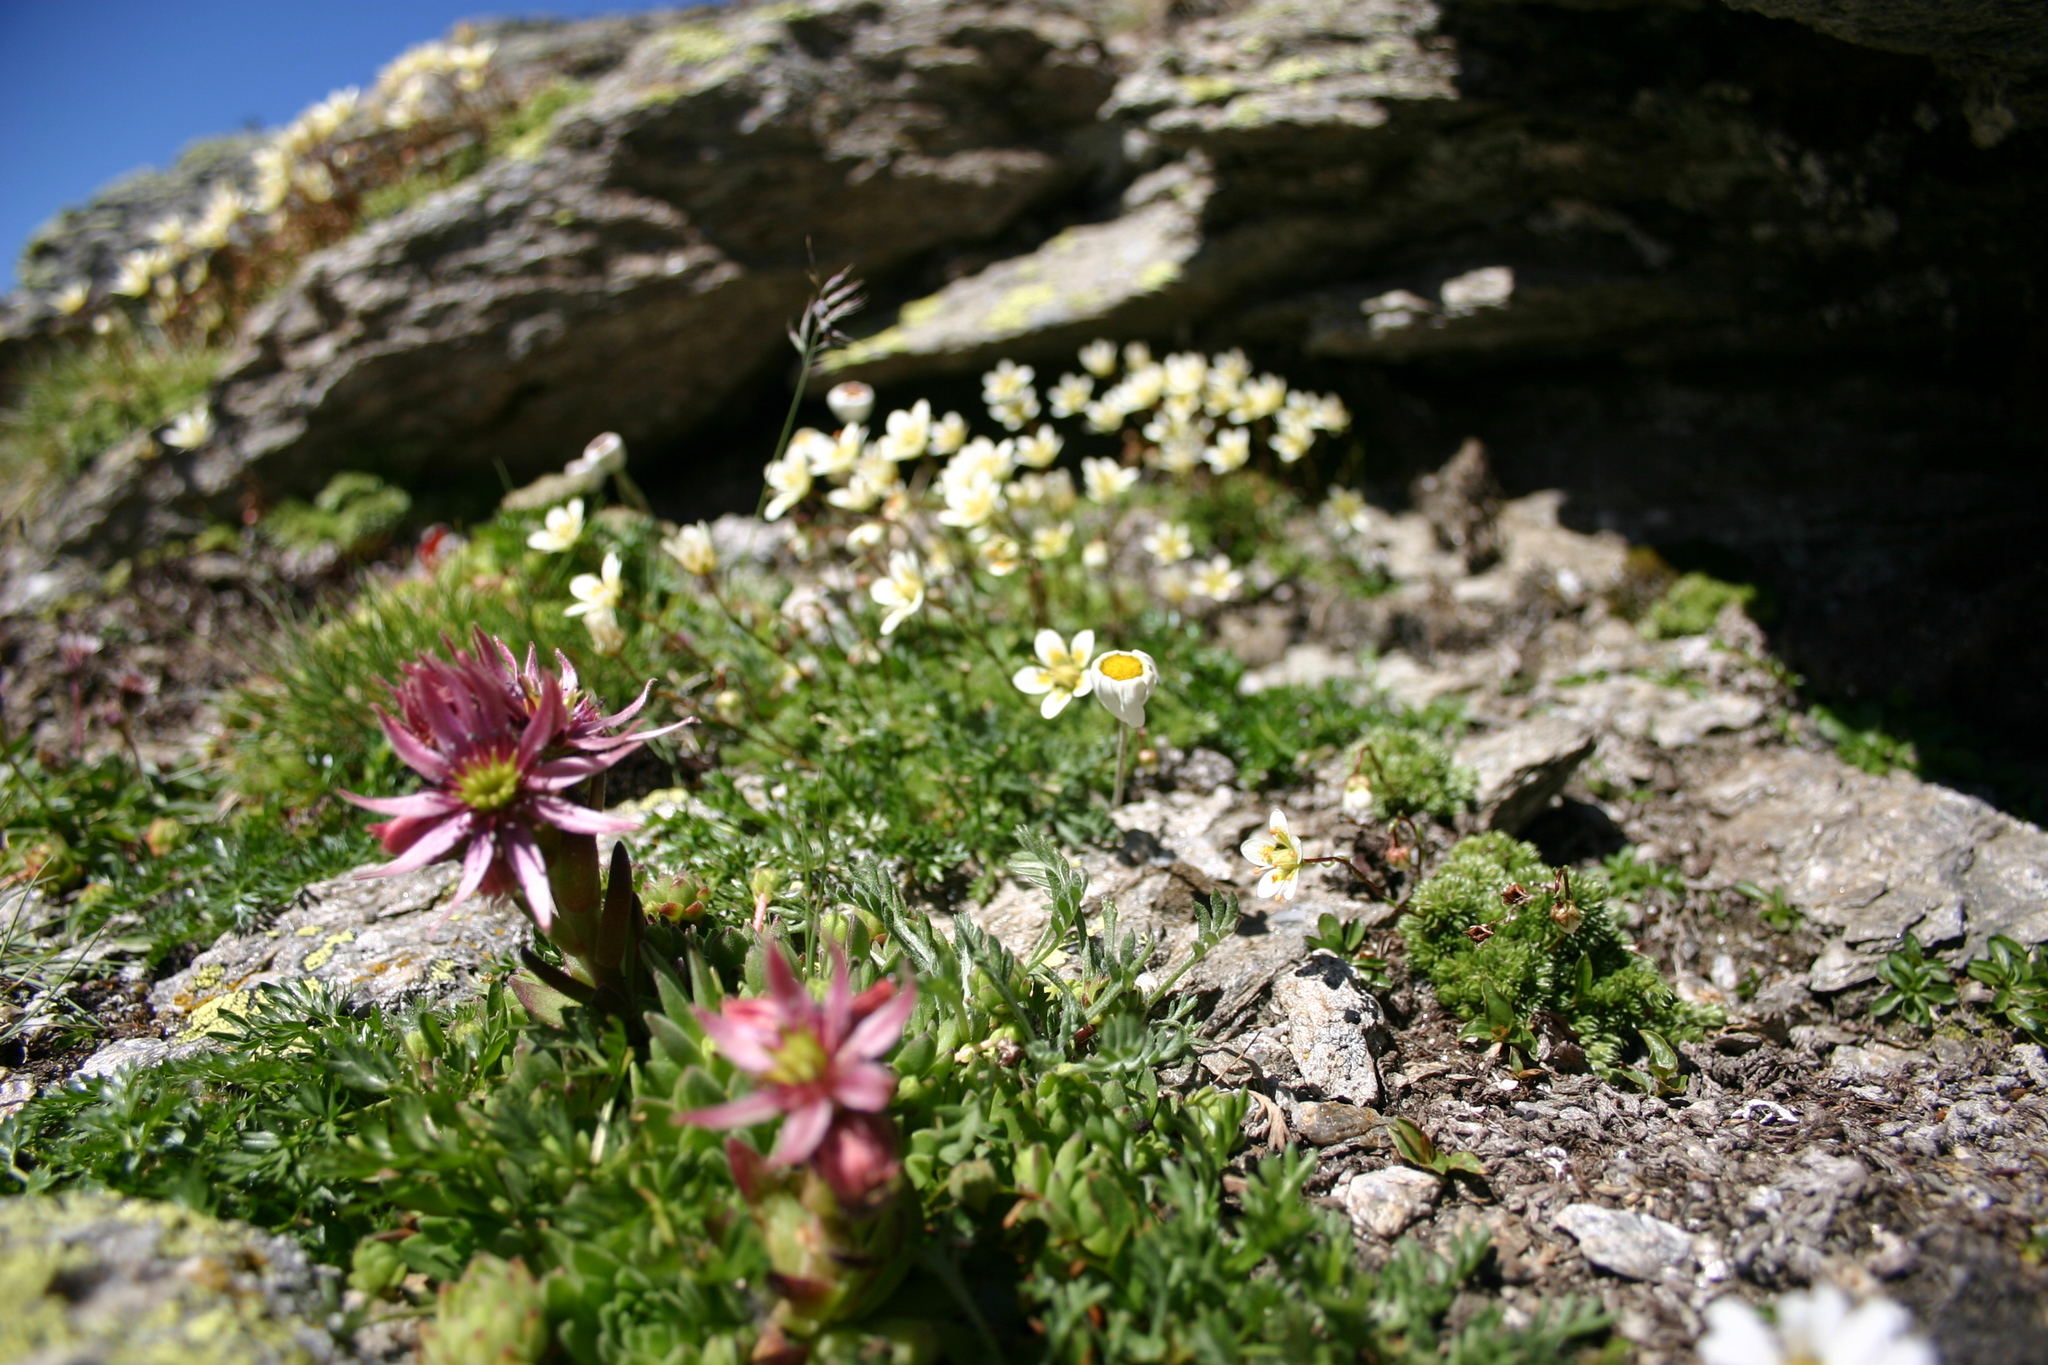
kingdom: Plantae
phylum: Tracheophyta
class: Magnoliopsida
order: Saxifragales
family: Crassulaceae
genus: Sempervivum
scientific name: Sempervivum montanum
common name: Mountain house-leek
